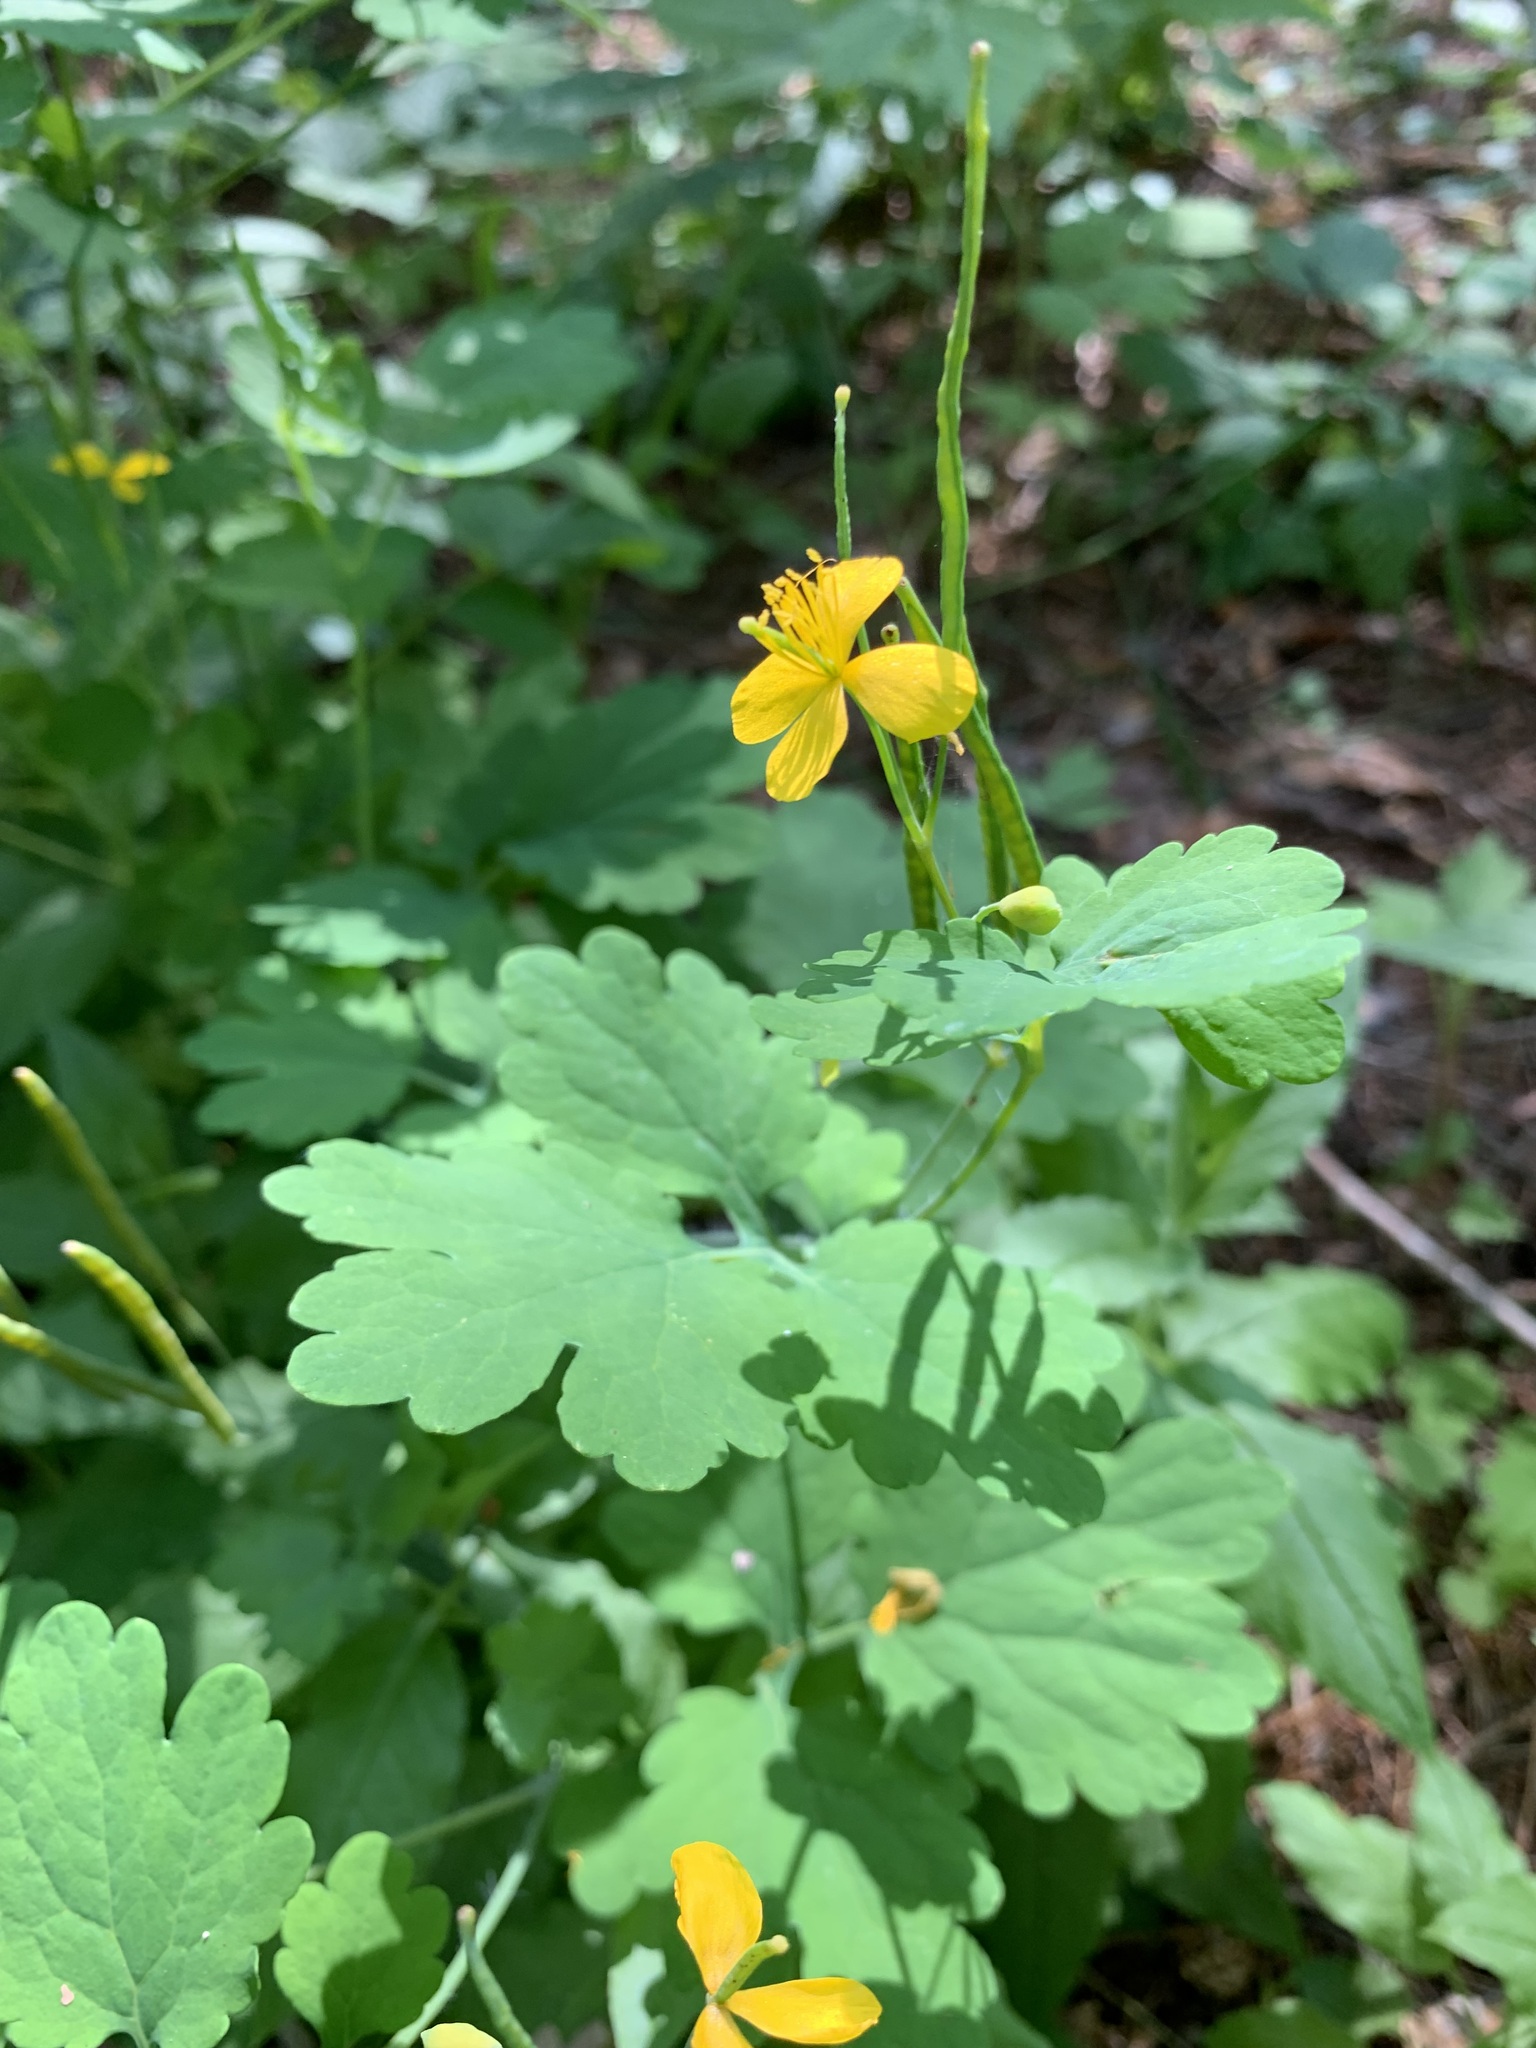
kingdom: Plantae
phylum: Tracheophyta
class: Magnoliopsida
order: Ranunculales
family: Papaveraceae
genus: Chelidonium
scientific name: Chelidonium majus
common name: Greater celandine
